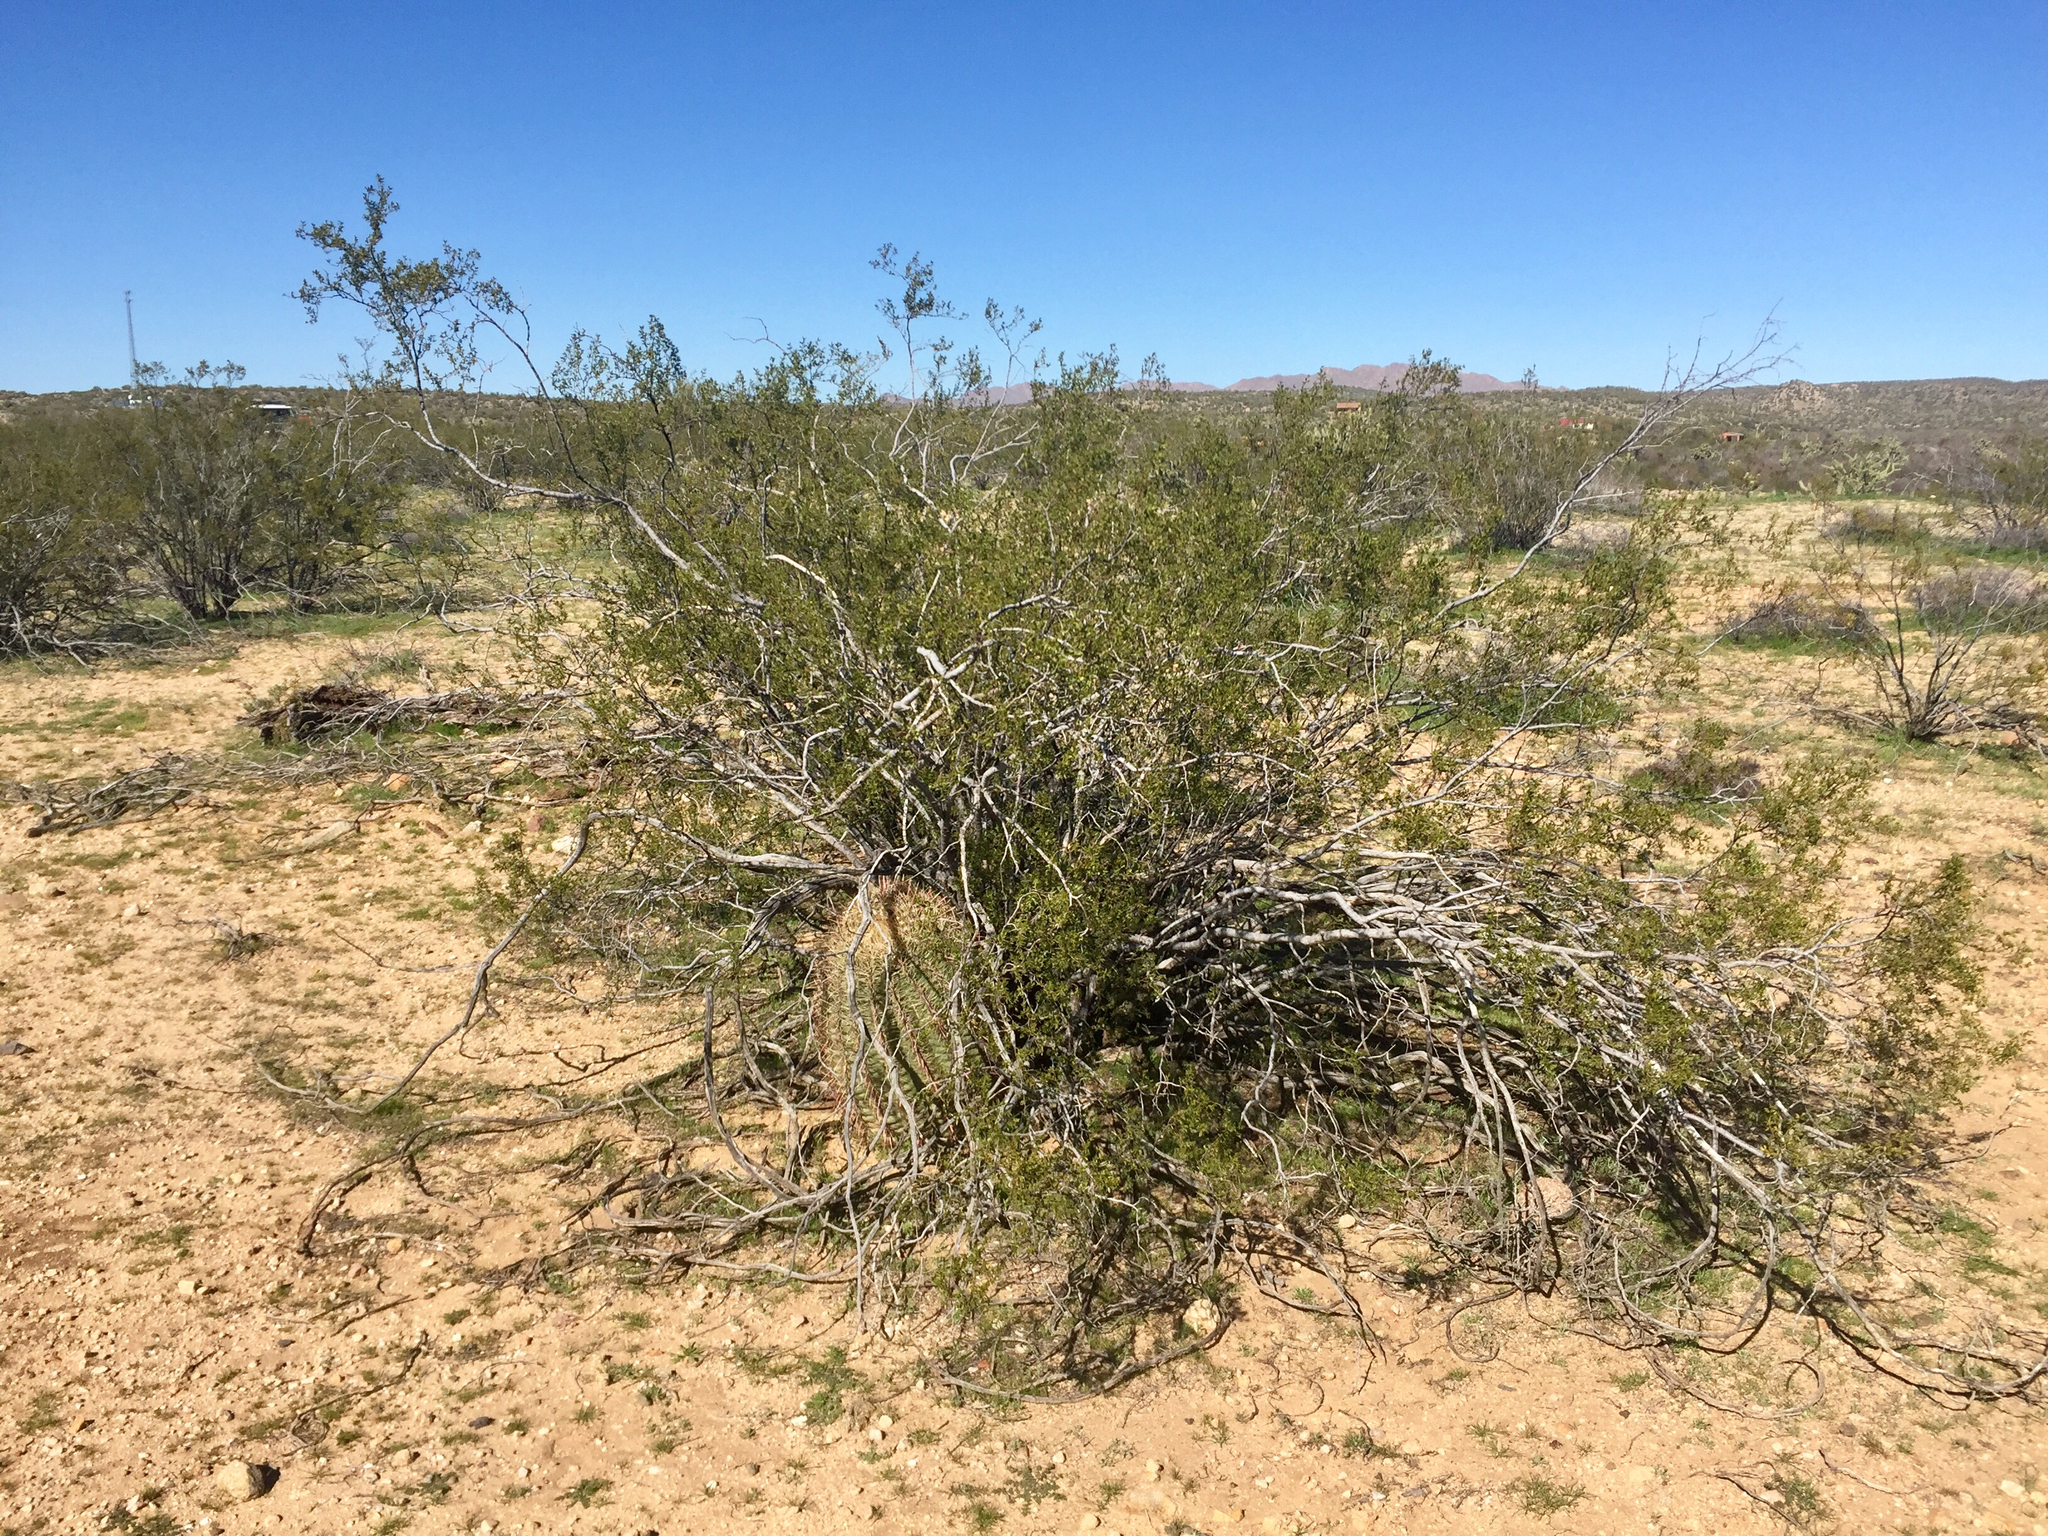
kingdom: Plantae
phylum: Tracheophyta
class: Magnoliopsida
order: Zygophyllales
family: Zygophyllaceae
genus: Larrea
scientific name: Larrea tridentata
